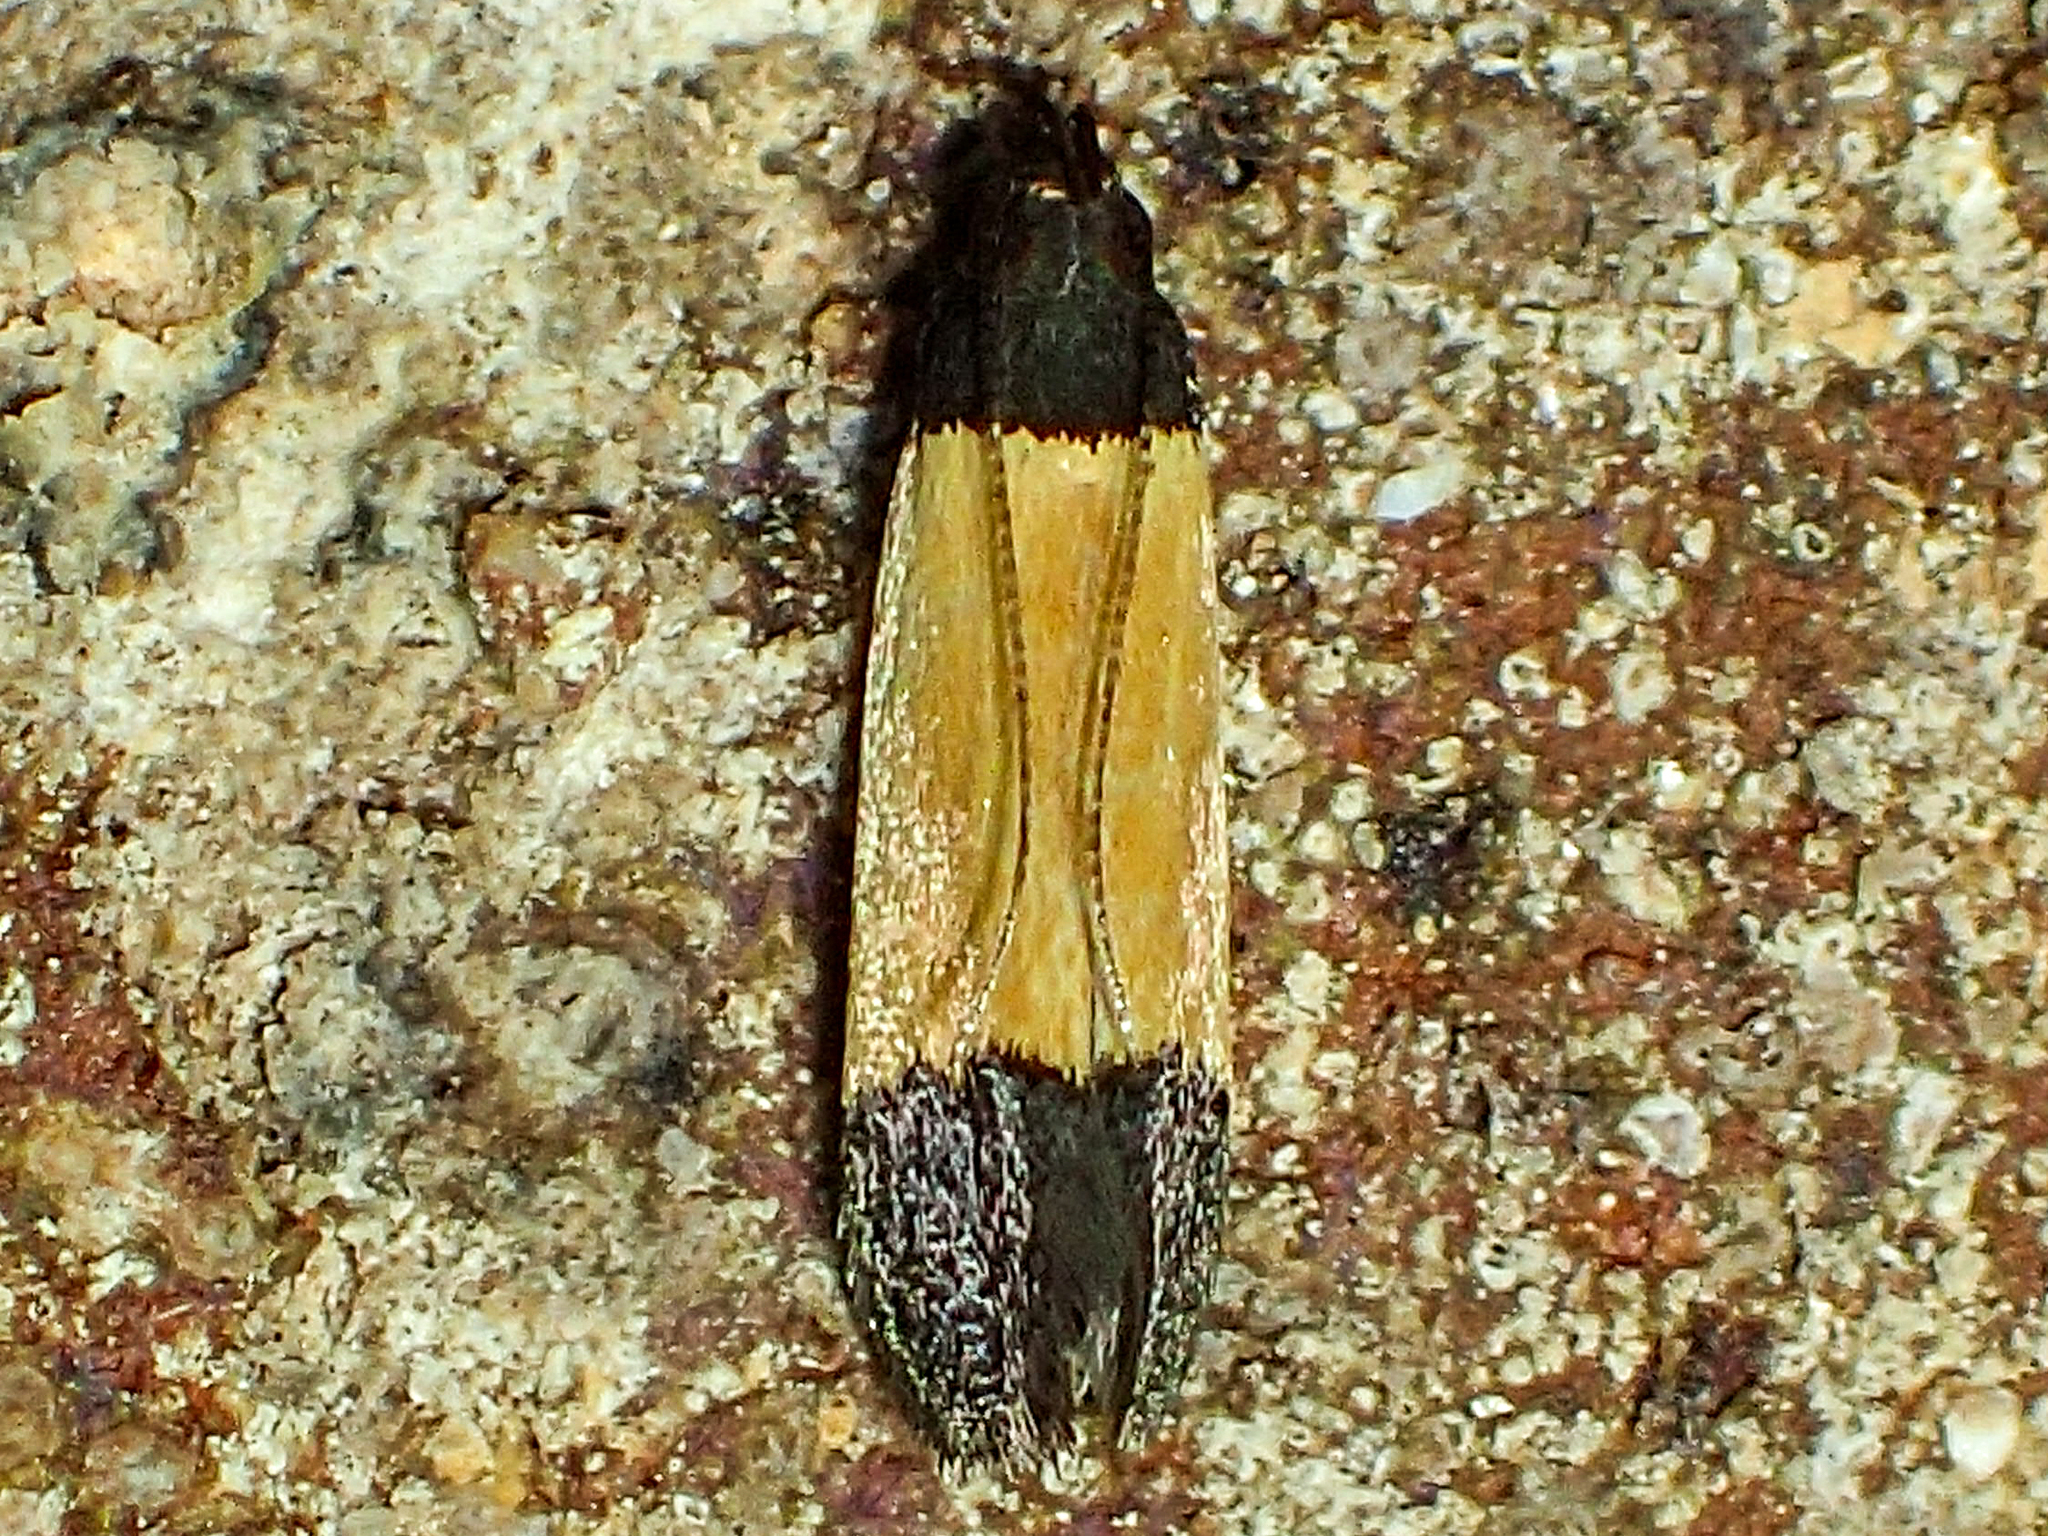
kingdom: Animalia
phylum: Arthropoda
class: Insecta
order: Lepidoptera
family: Gelechiidae
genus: Anacampsis
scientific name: Anacampsis coverdalella
